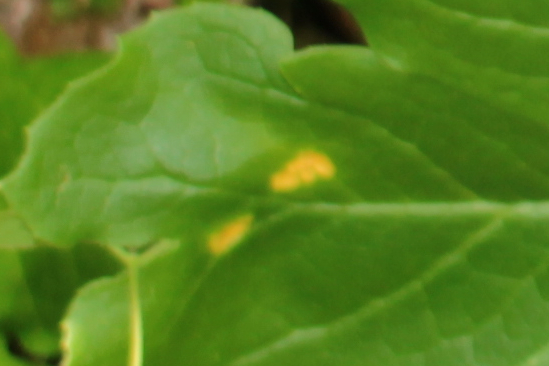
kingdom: Fungi
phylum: Basidiomycota
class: Pucciniomycetes
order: Pucciniales
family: Pucciniaceae
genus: Puccinia
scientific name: Puccinia podophylli
